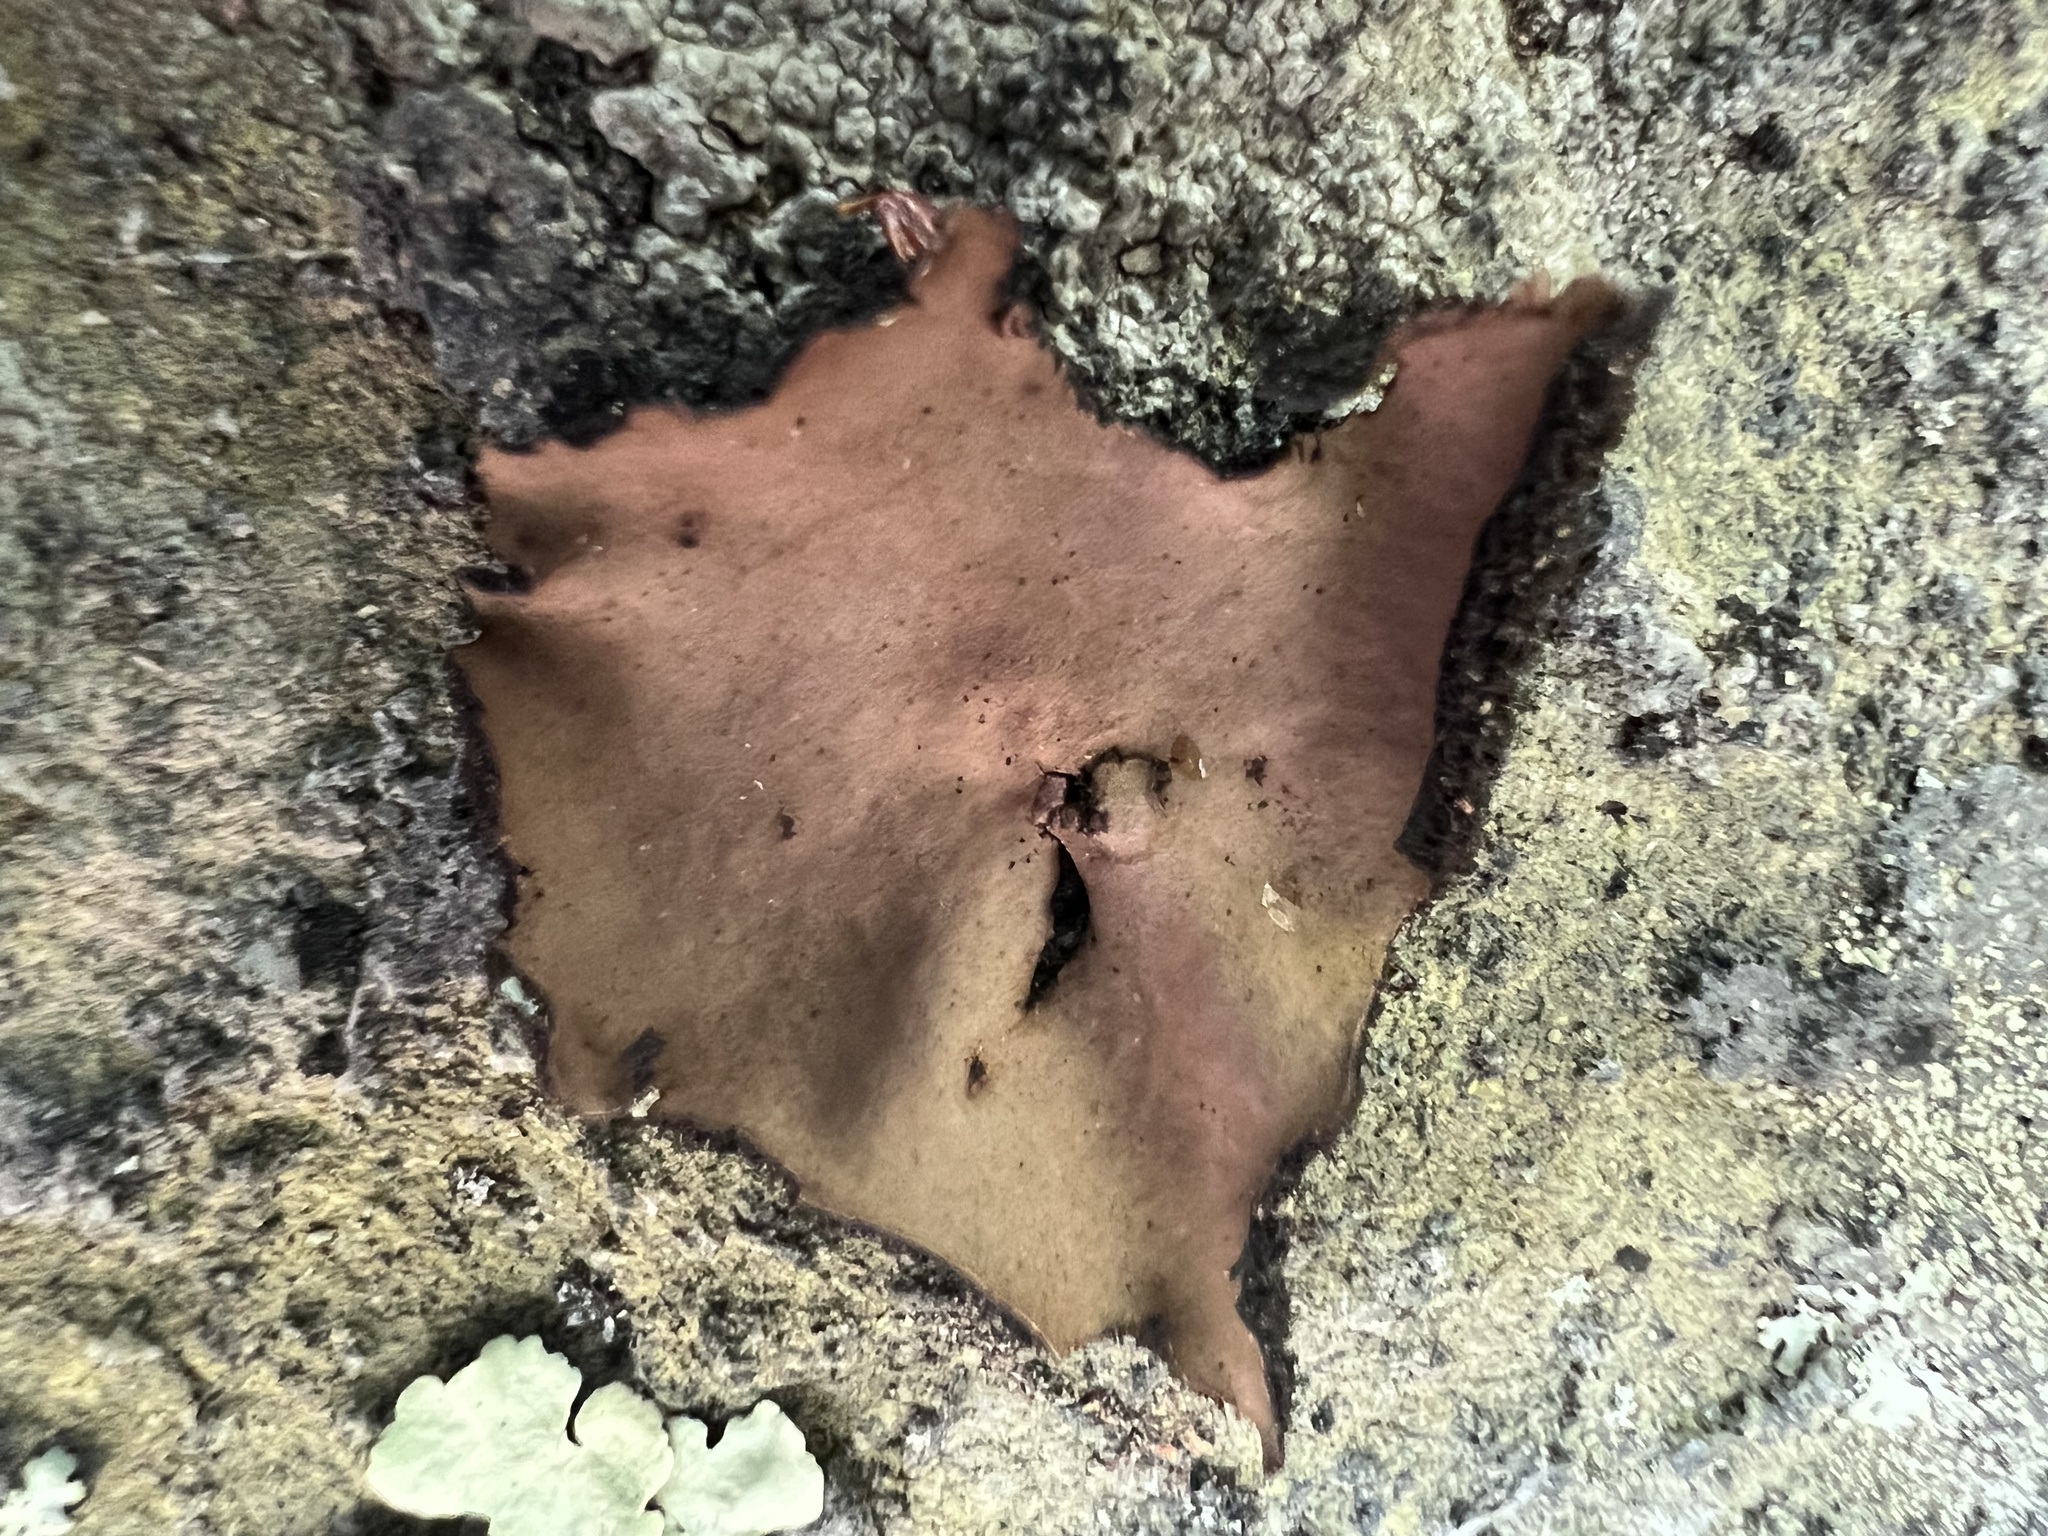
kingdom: Fungi
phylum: Ascomycota
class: Lecanoromycetes
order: Umbilicariales
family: Umbilicariaceae
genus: Umbilicaria
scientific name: Umbilicaria mammulata
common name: Smooth rock tripe
